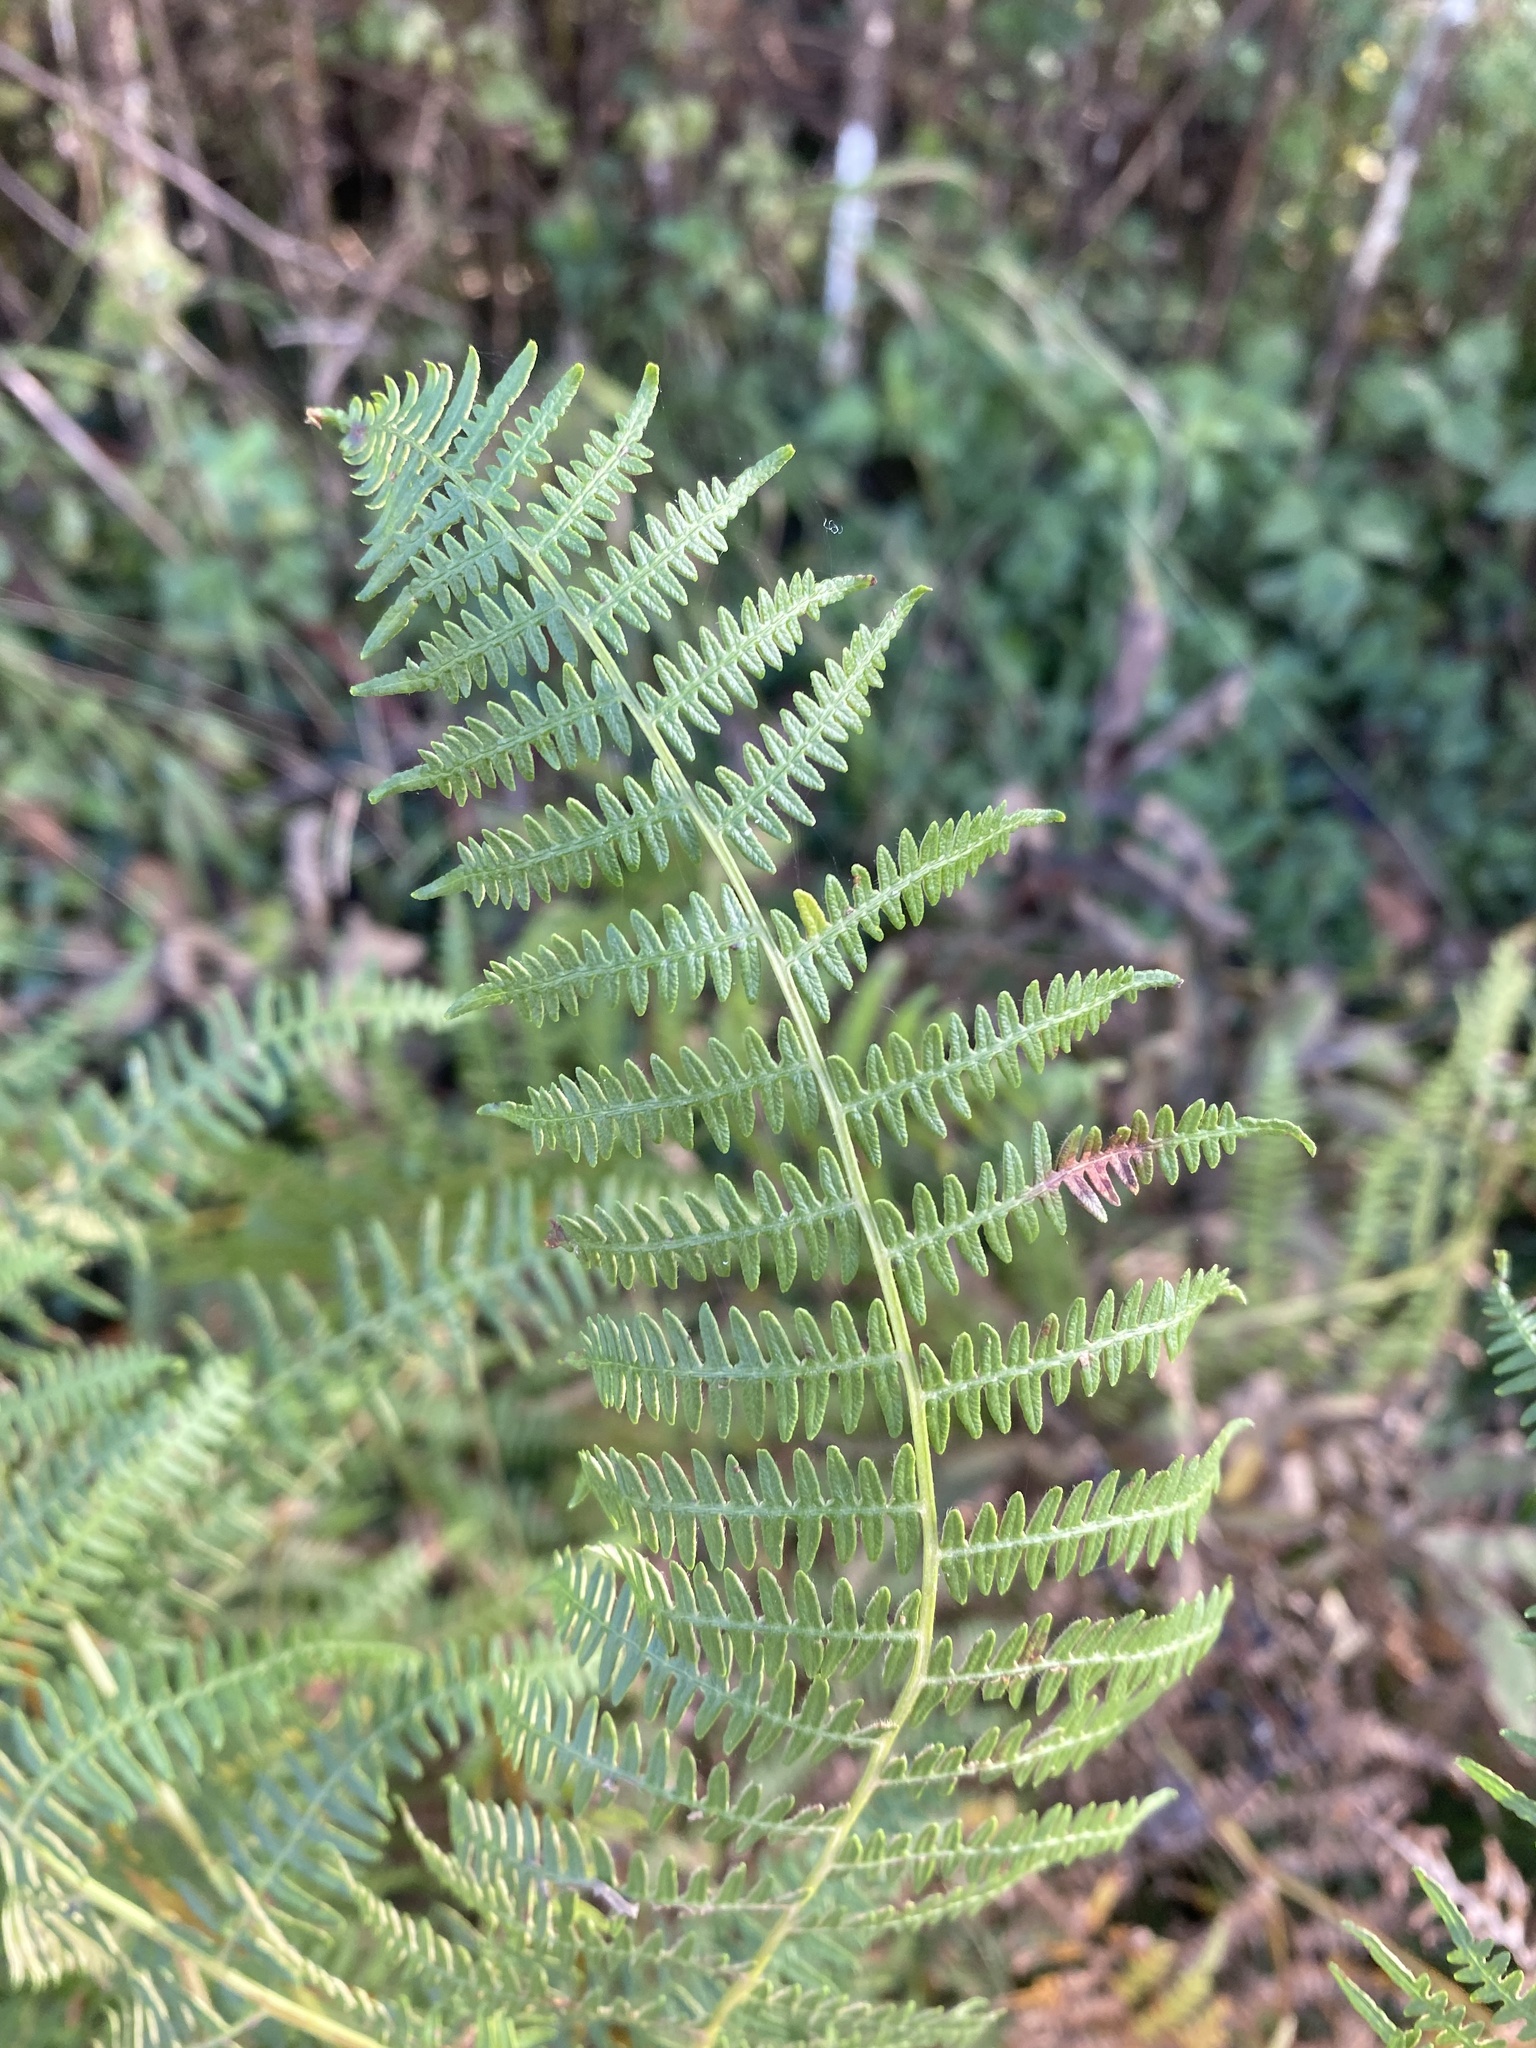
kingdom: Plantae
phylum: Tracheophyta
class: Polypodiopsida
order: Polypodiales
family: Dennstaedtiaceae
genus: Pteridium
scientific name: Pteridium tauricum
